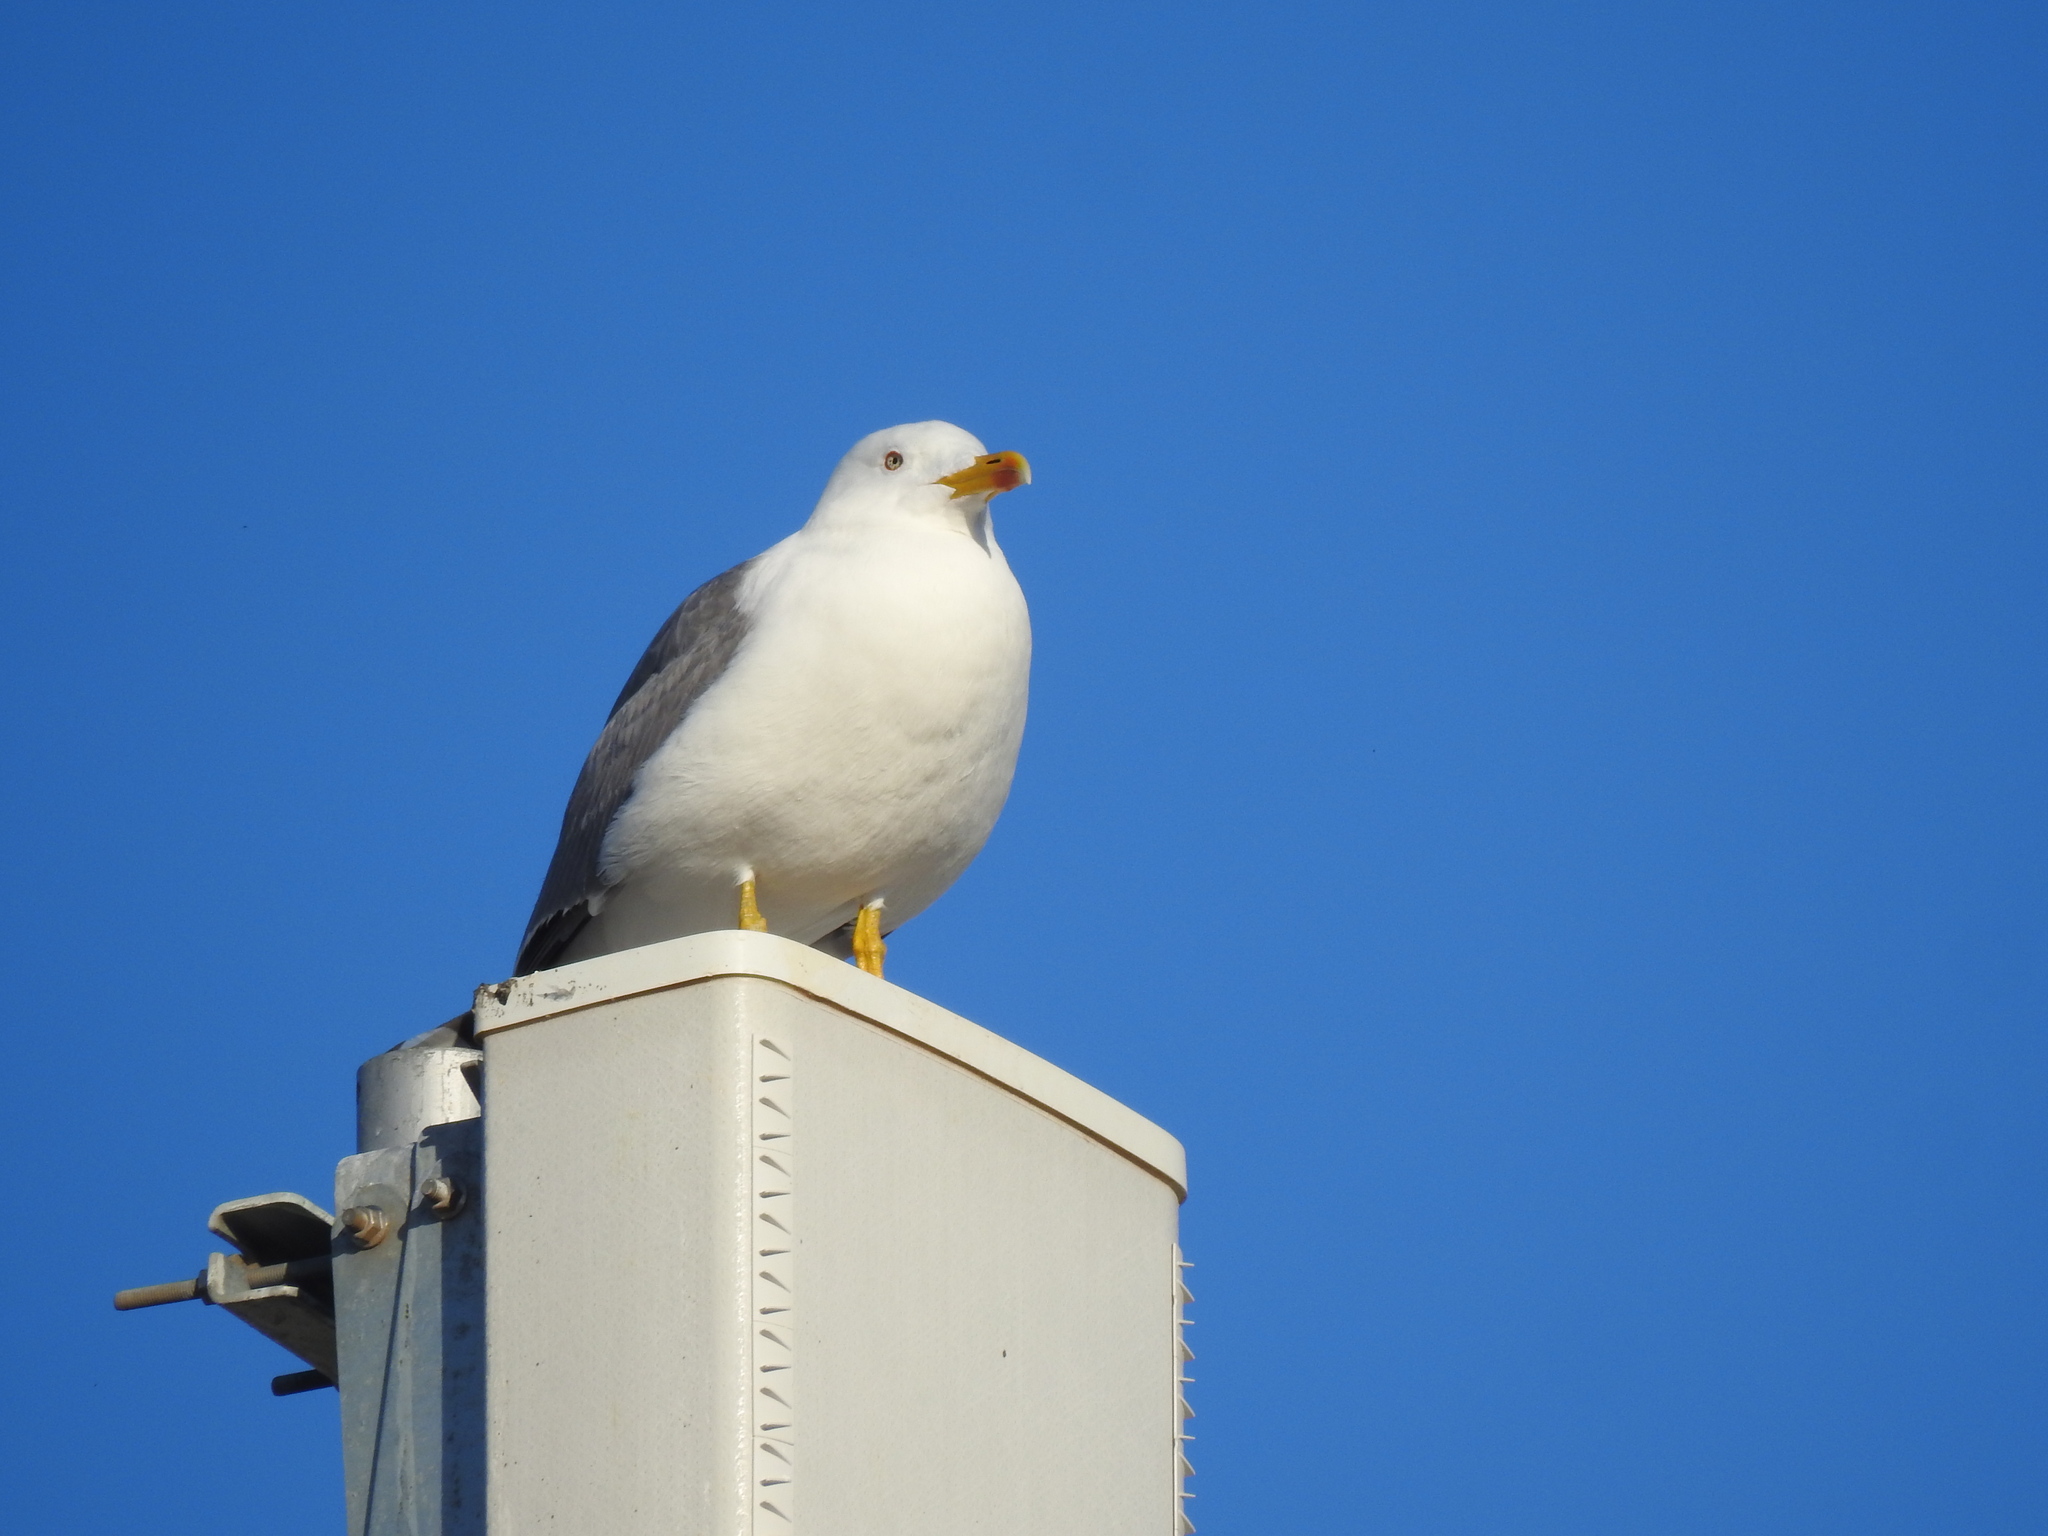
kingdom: Animalia
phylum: Chordata
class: Aves
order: Charadriiformes
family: Laridae
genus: Larus
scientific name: Larus michahellis
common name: Yellow-legged gull
